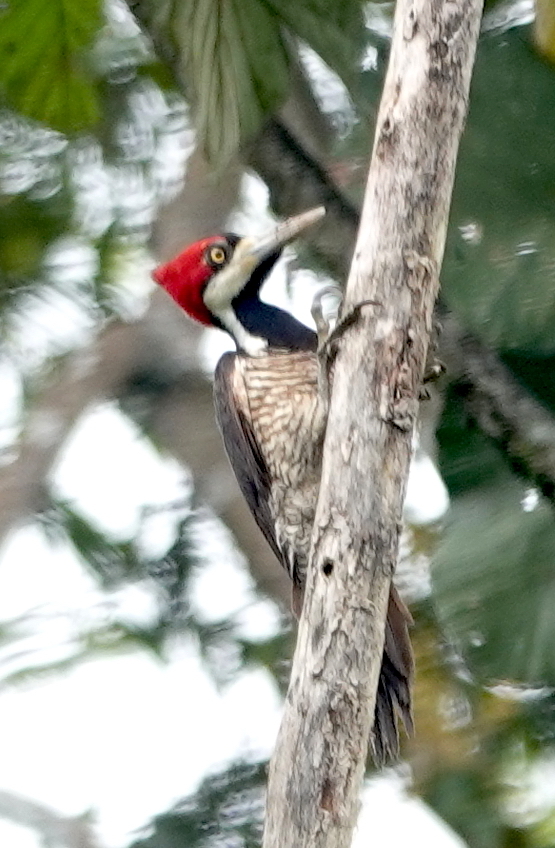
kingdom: Animalia
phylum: Chordata
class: Aves
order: Piciformes
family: Picidae
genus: Campephilus
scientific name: Campephilus melanoleucos
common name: Crimson-crested woodpecker
